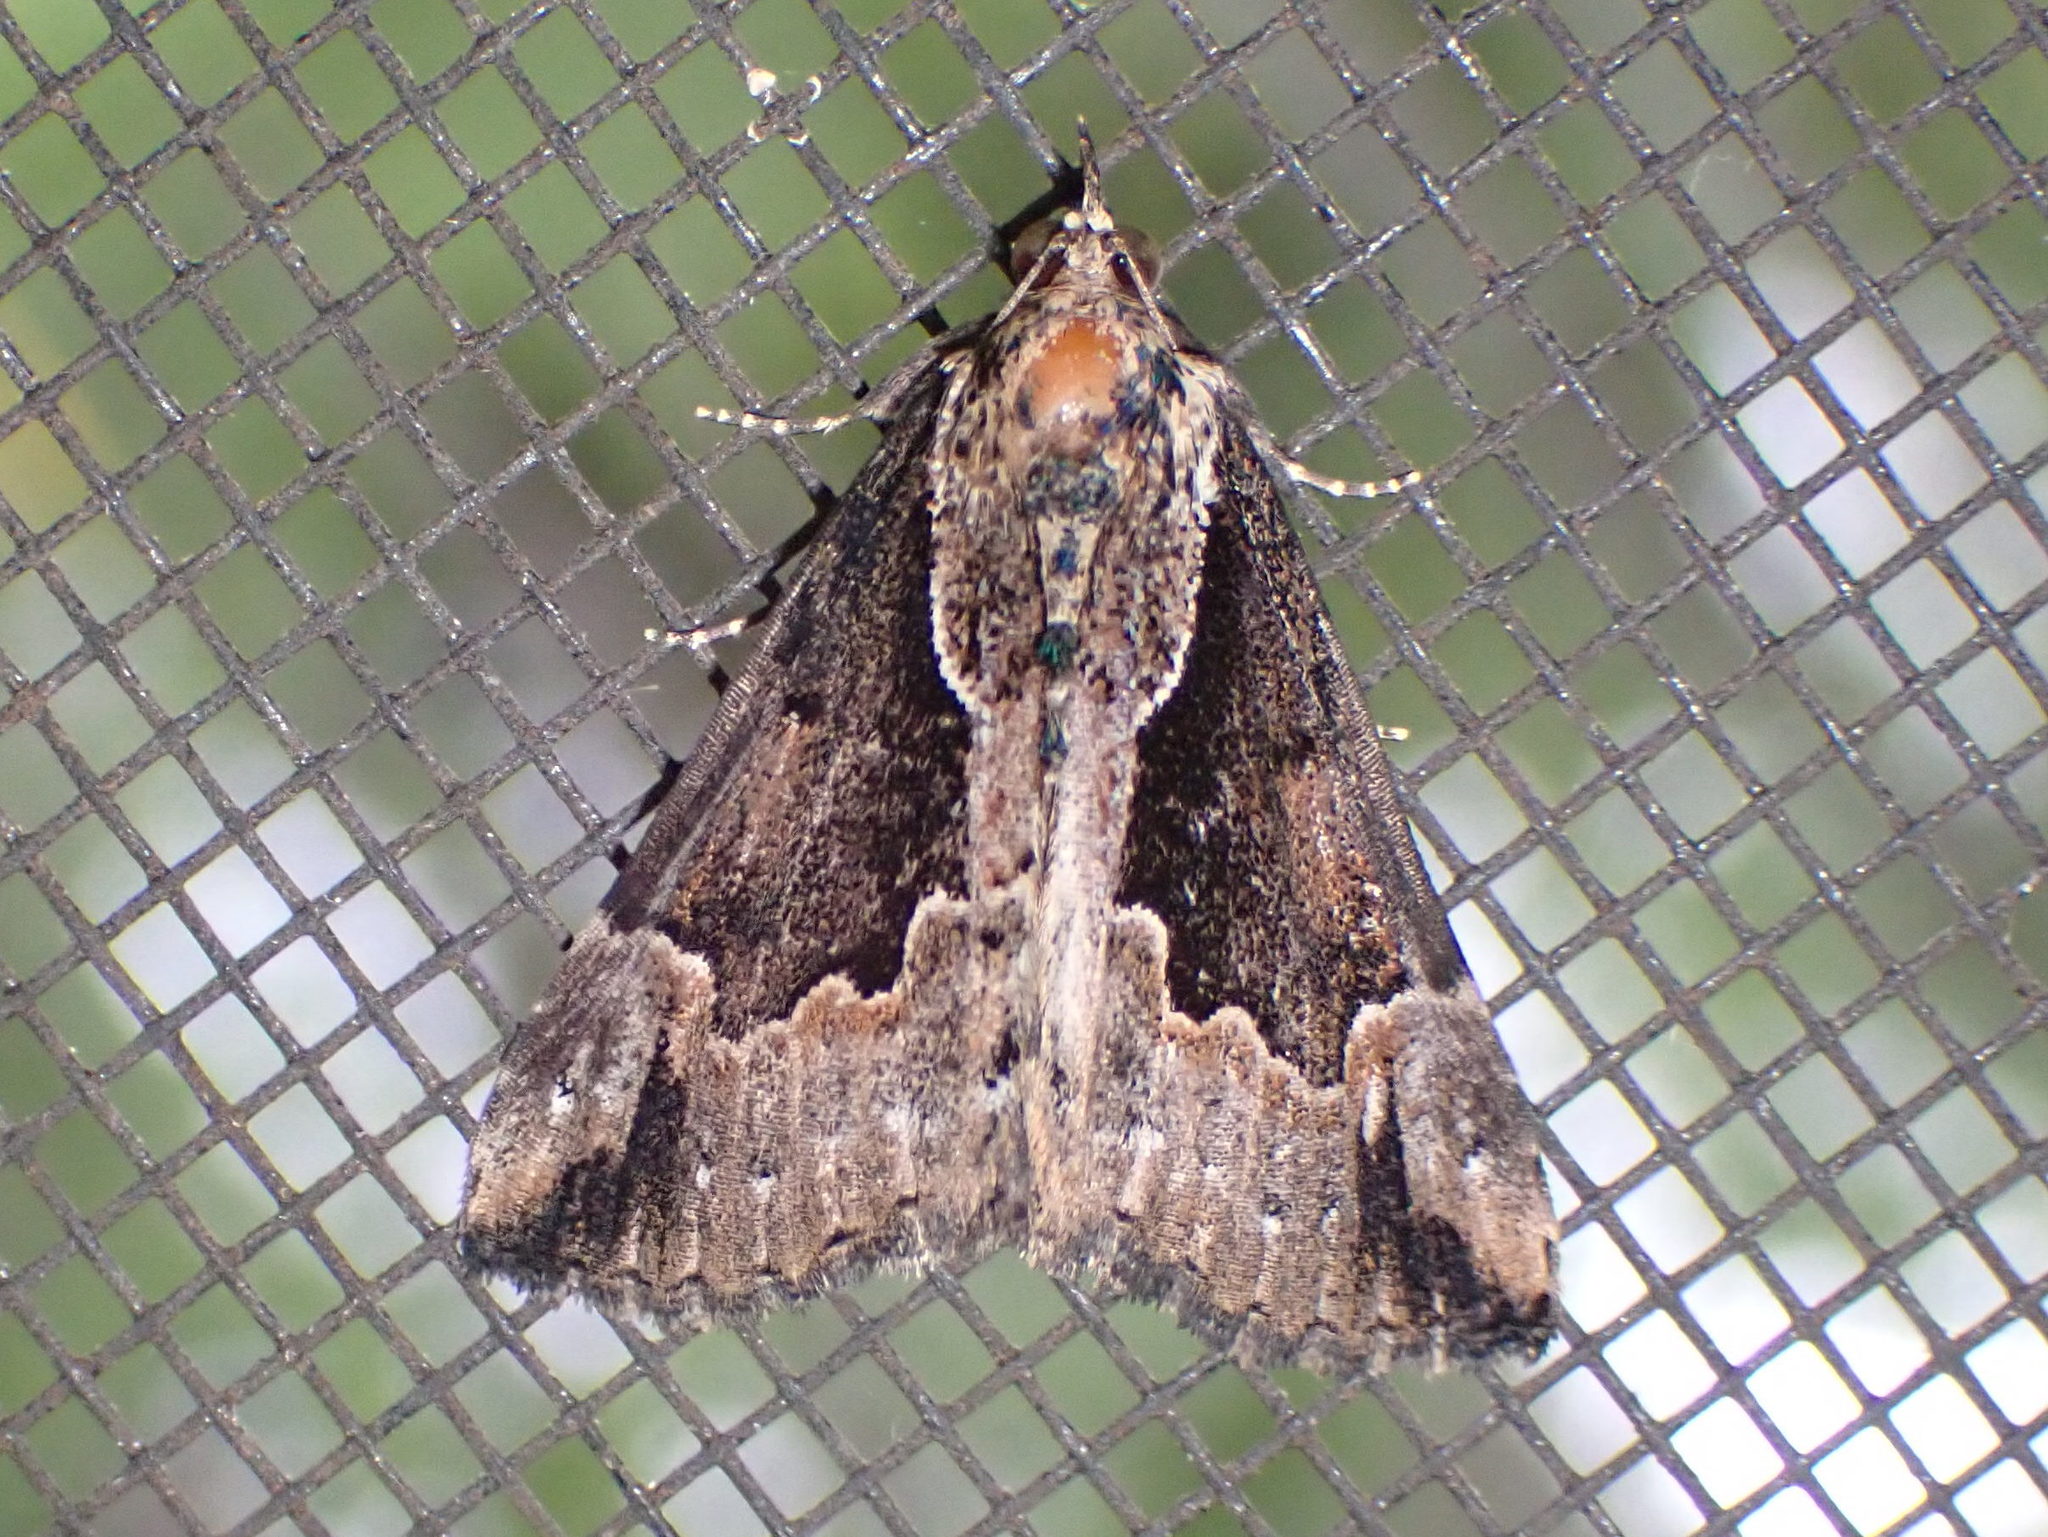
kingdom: Animalia
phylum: Arthropoda
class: Insecta
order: Lepidoptera
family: Erebidae
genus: Hypena
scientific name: Hypena baltimoralis
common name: Baltimore snout
